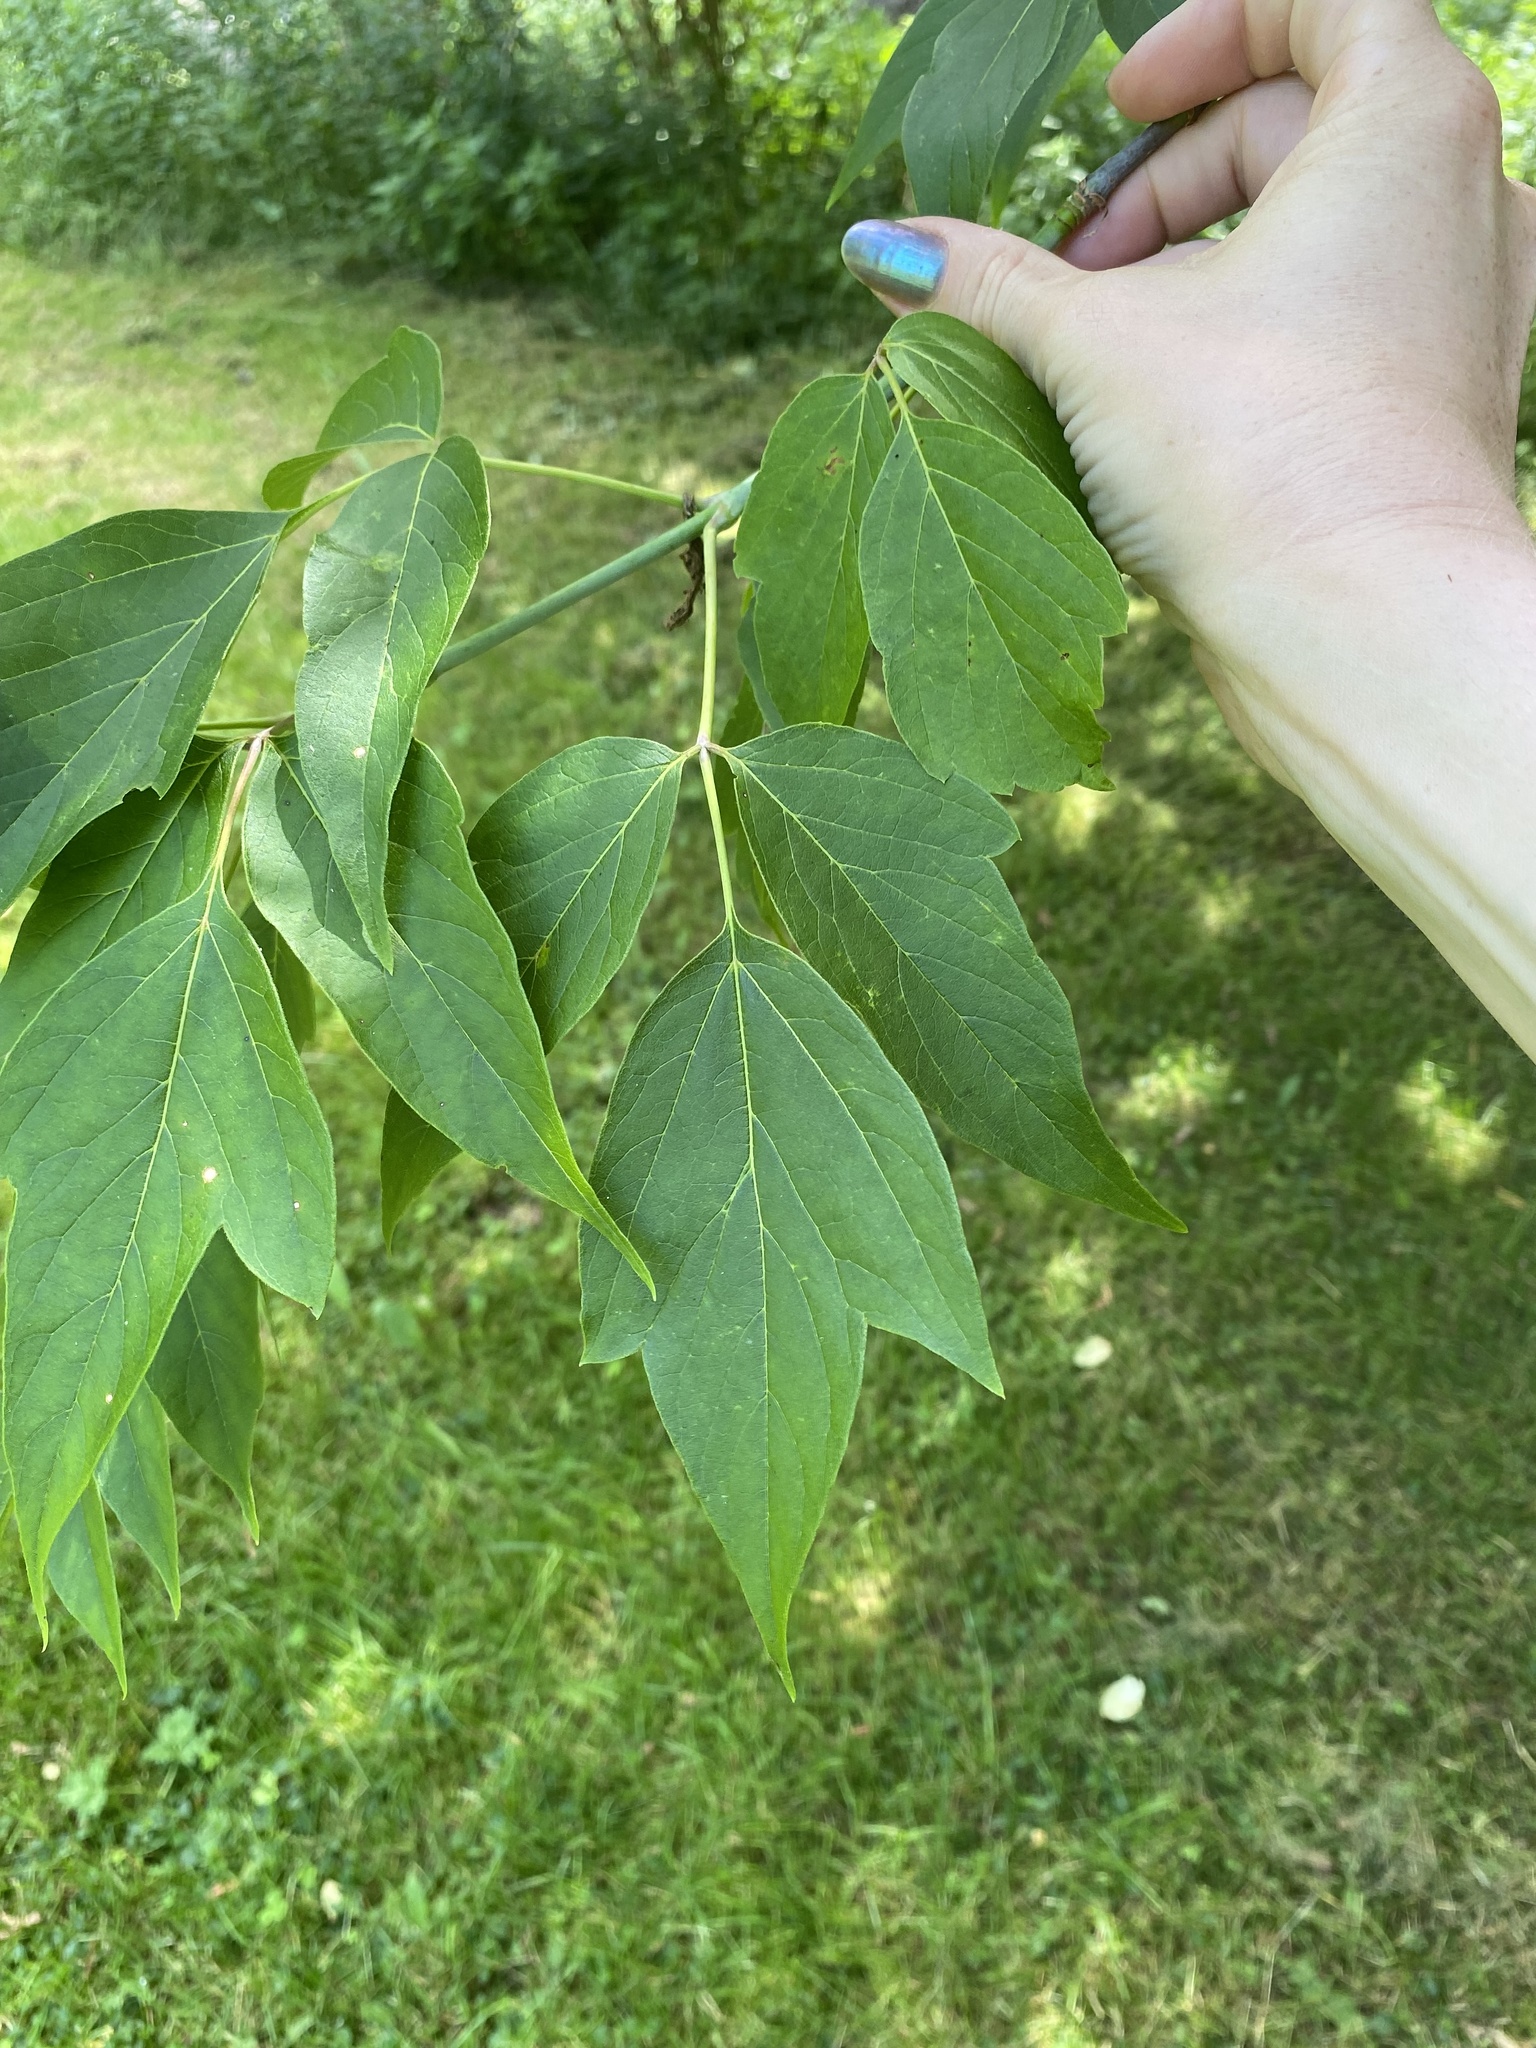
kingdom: Plantae
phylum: Tracheophyta
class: Magnoliopsida
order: Sapindales
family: Sapindaceae
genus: Acer
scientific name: Acer negundo
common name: Ashleaf maple
